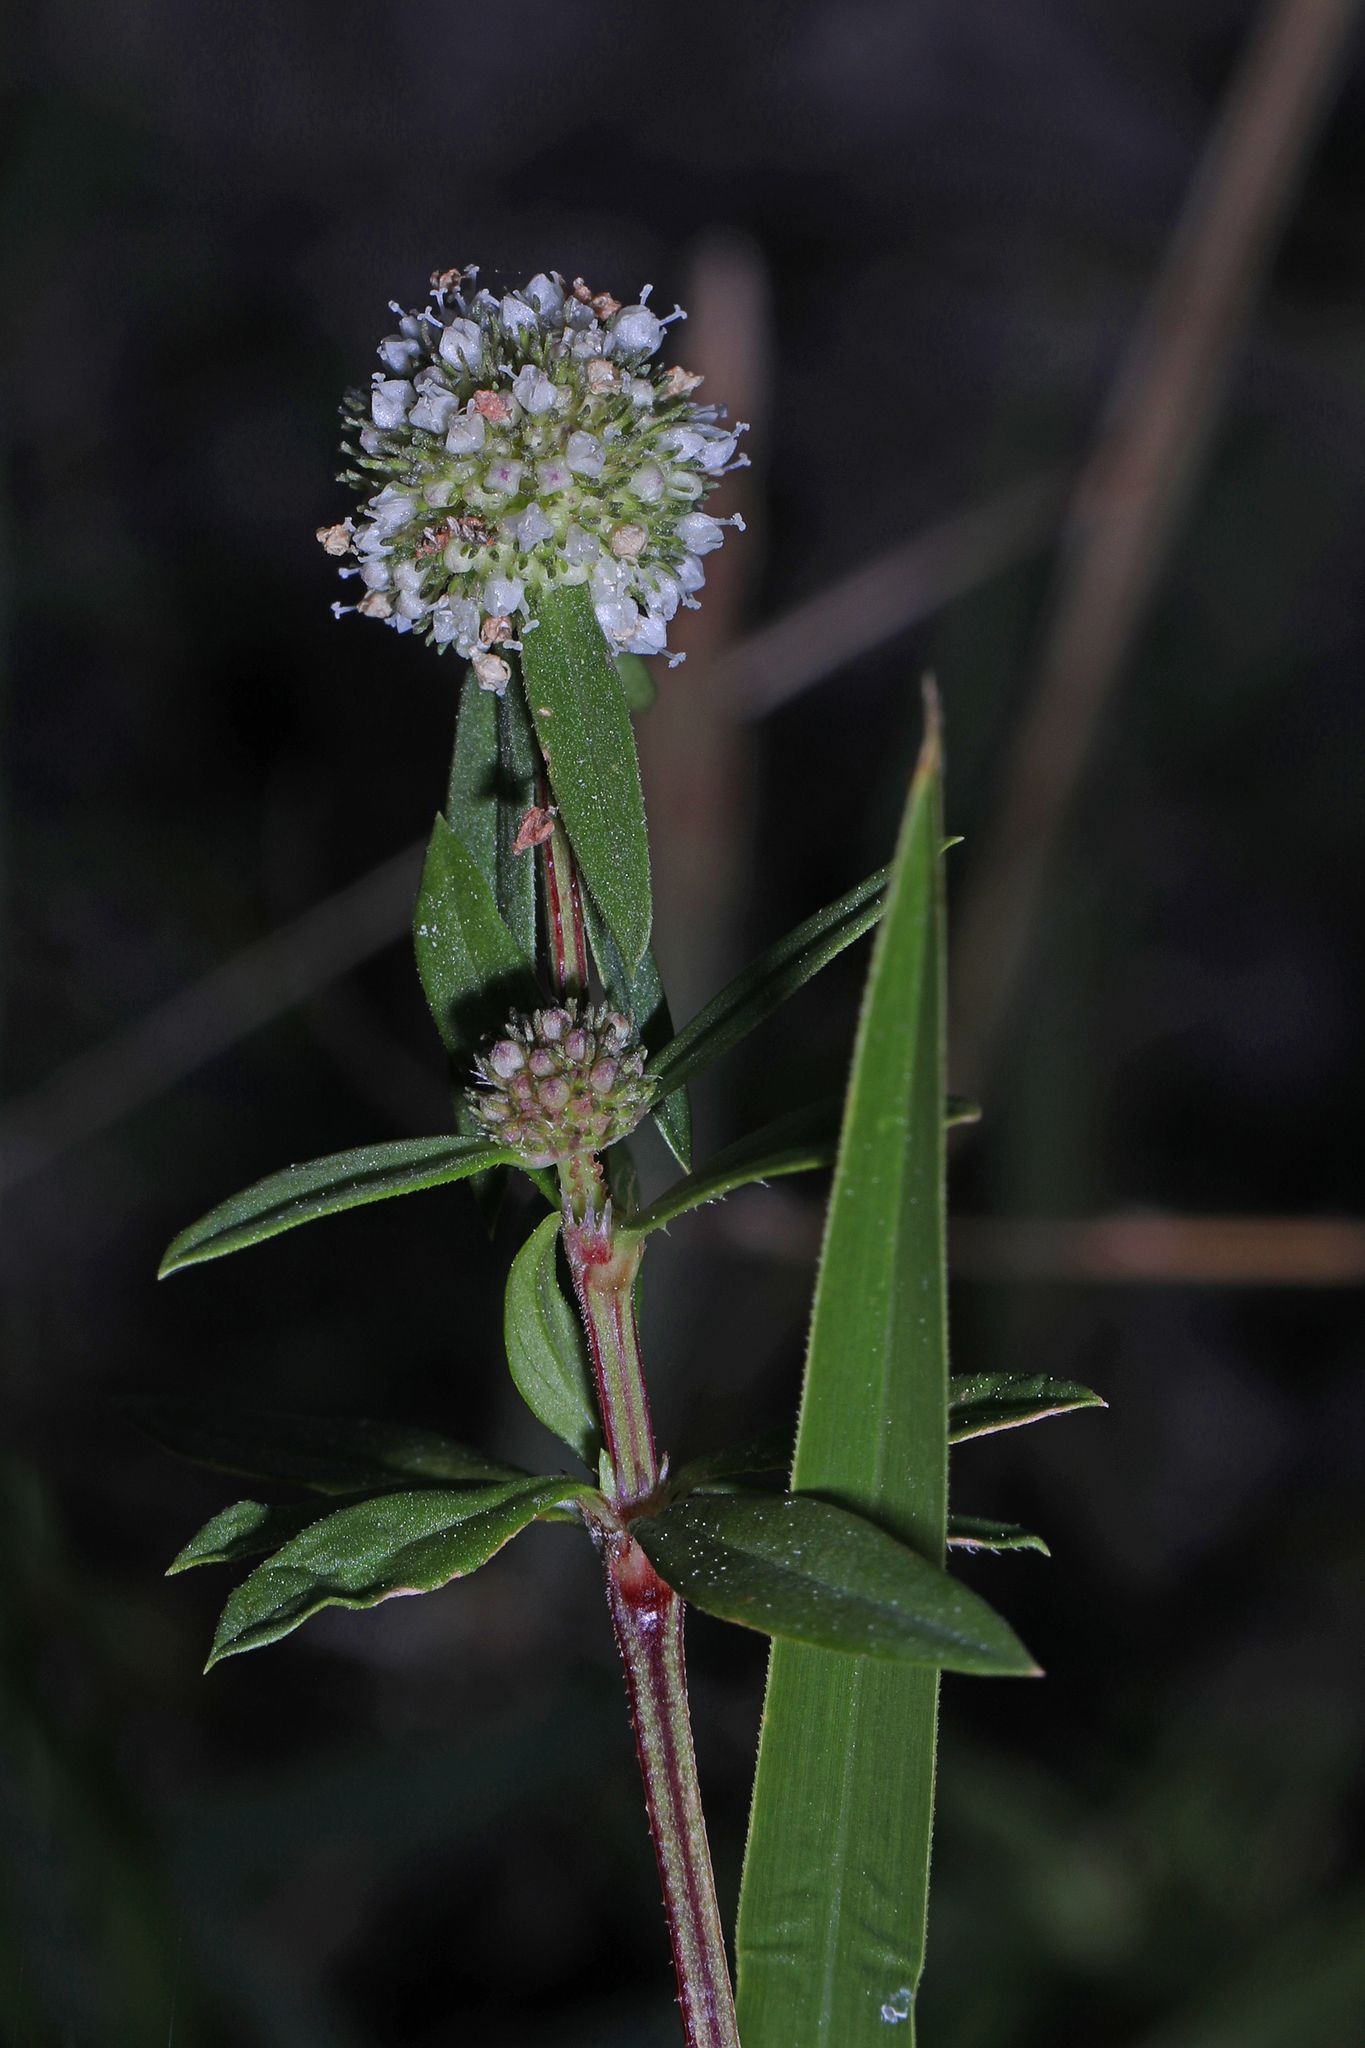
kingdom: Plantae
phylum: Tracheophyta
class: Magnoliopsida
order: Gentianales
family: Rubiaceae
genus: Spermacoce
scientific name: Spermacoce verticillata
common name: Shrubby false buttonweed
